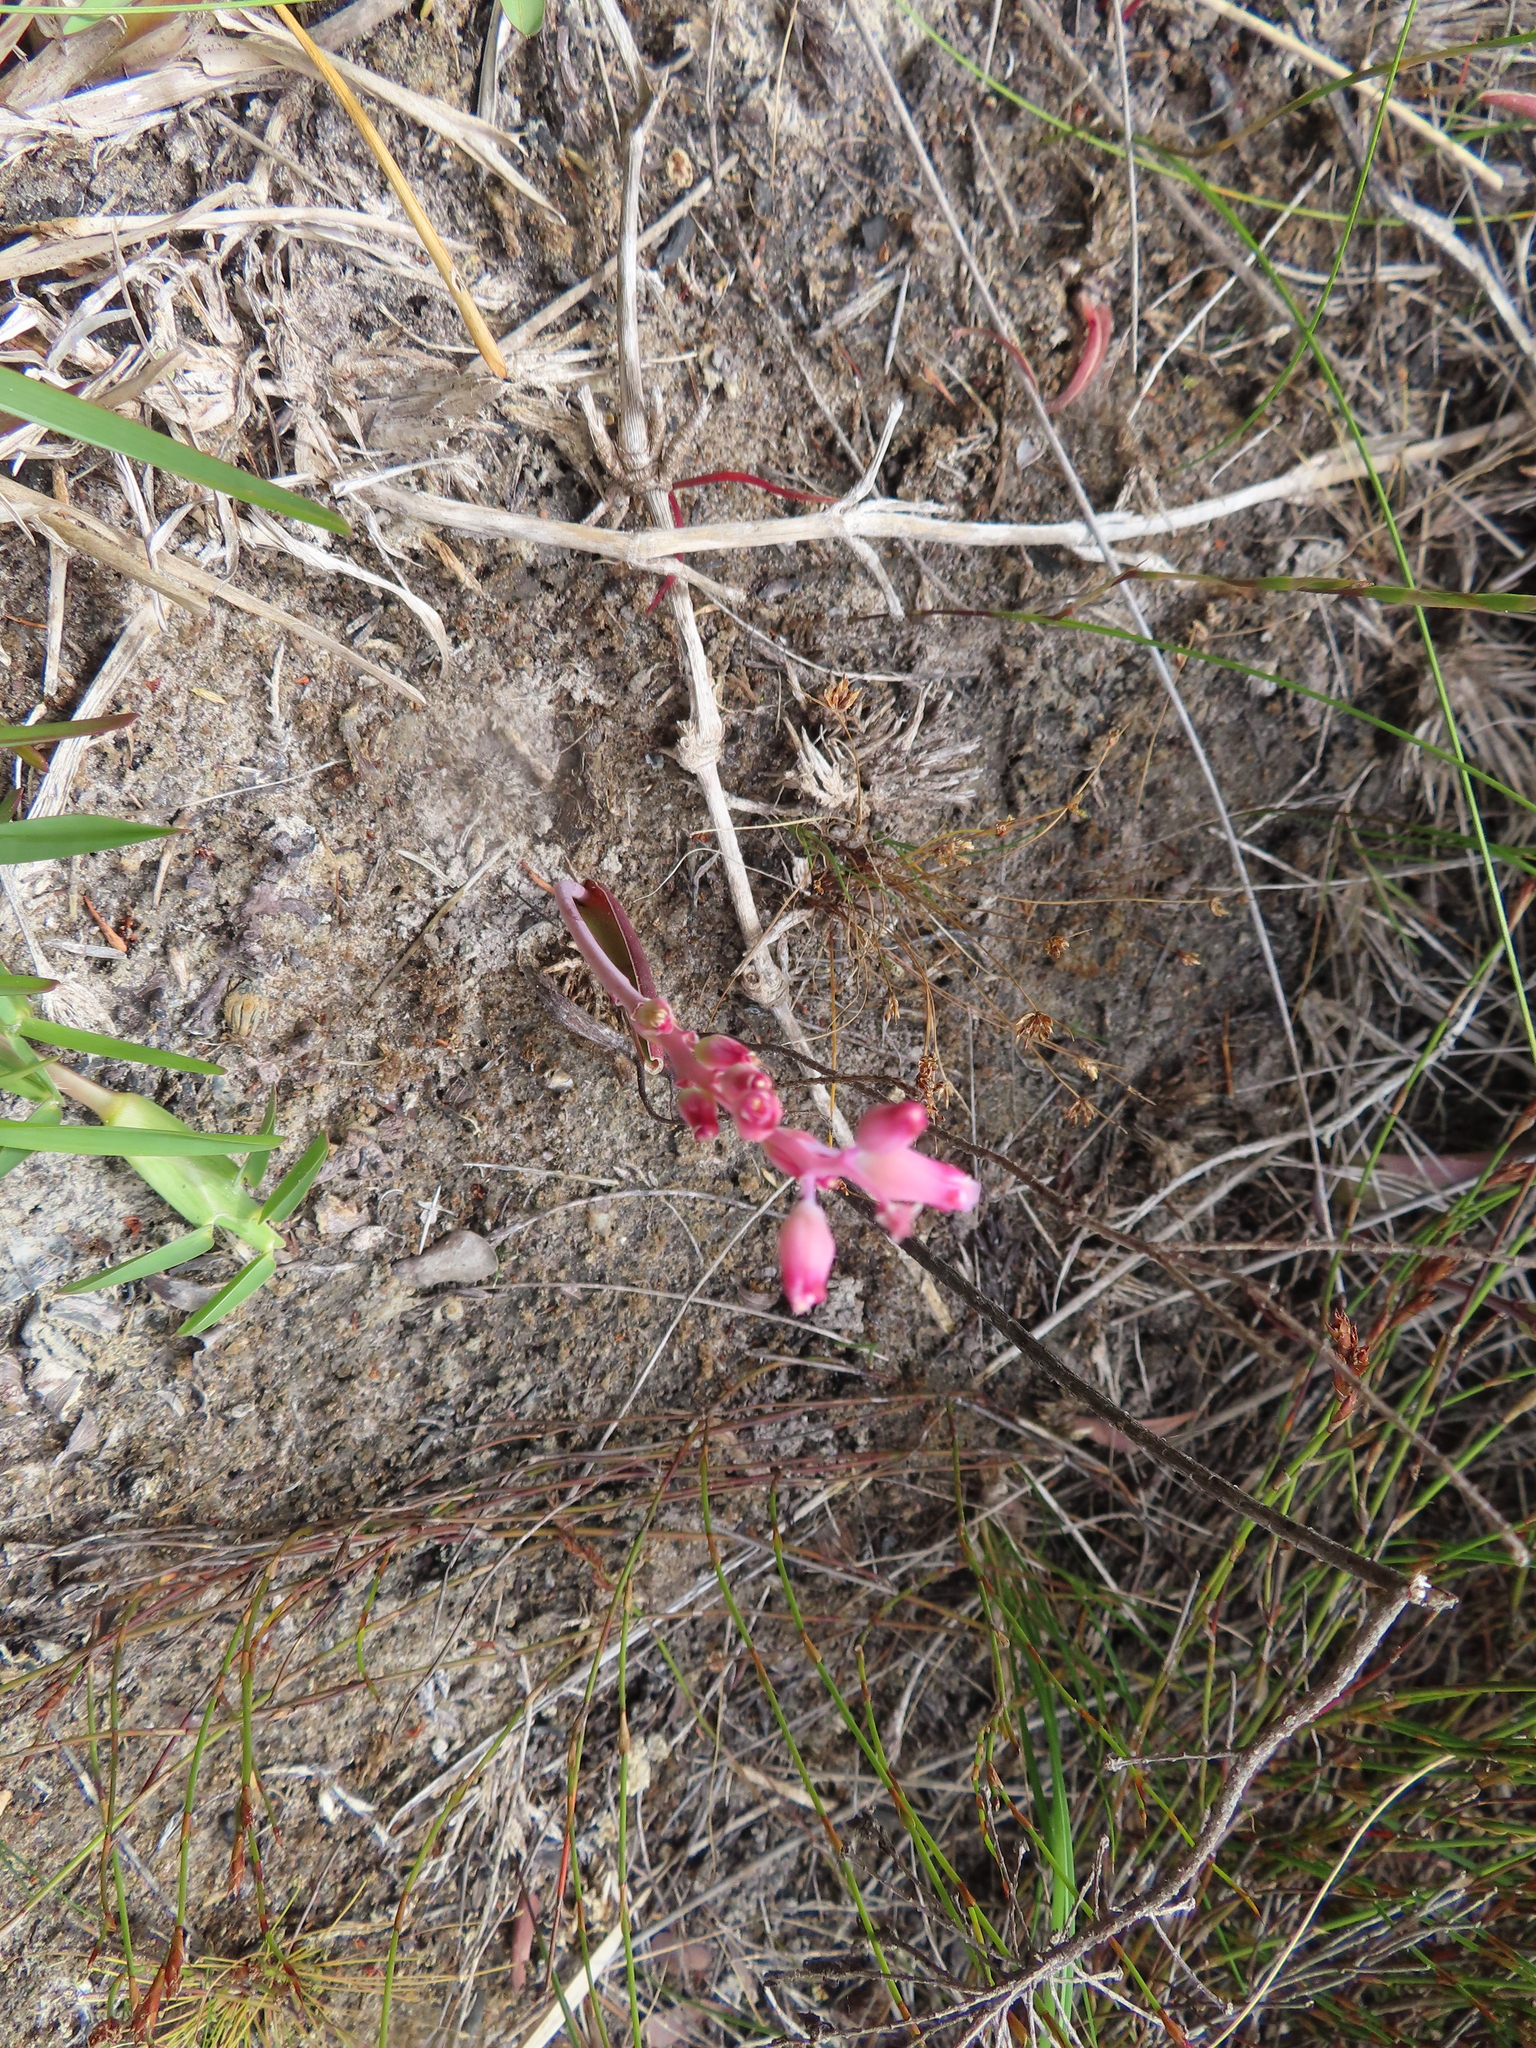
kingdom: Plantae
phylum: Tracheophyta
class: Liliopsida
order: Asparagales
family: Asparagaceae
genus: Lachenalia
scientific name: Lachenalia rosea
